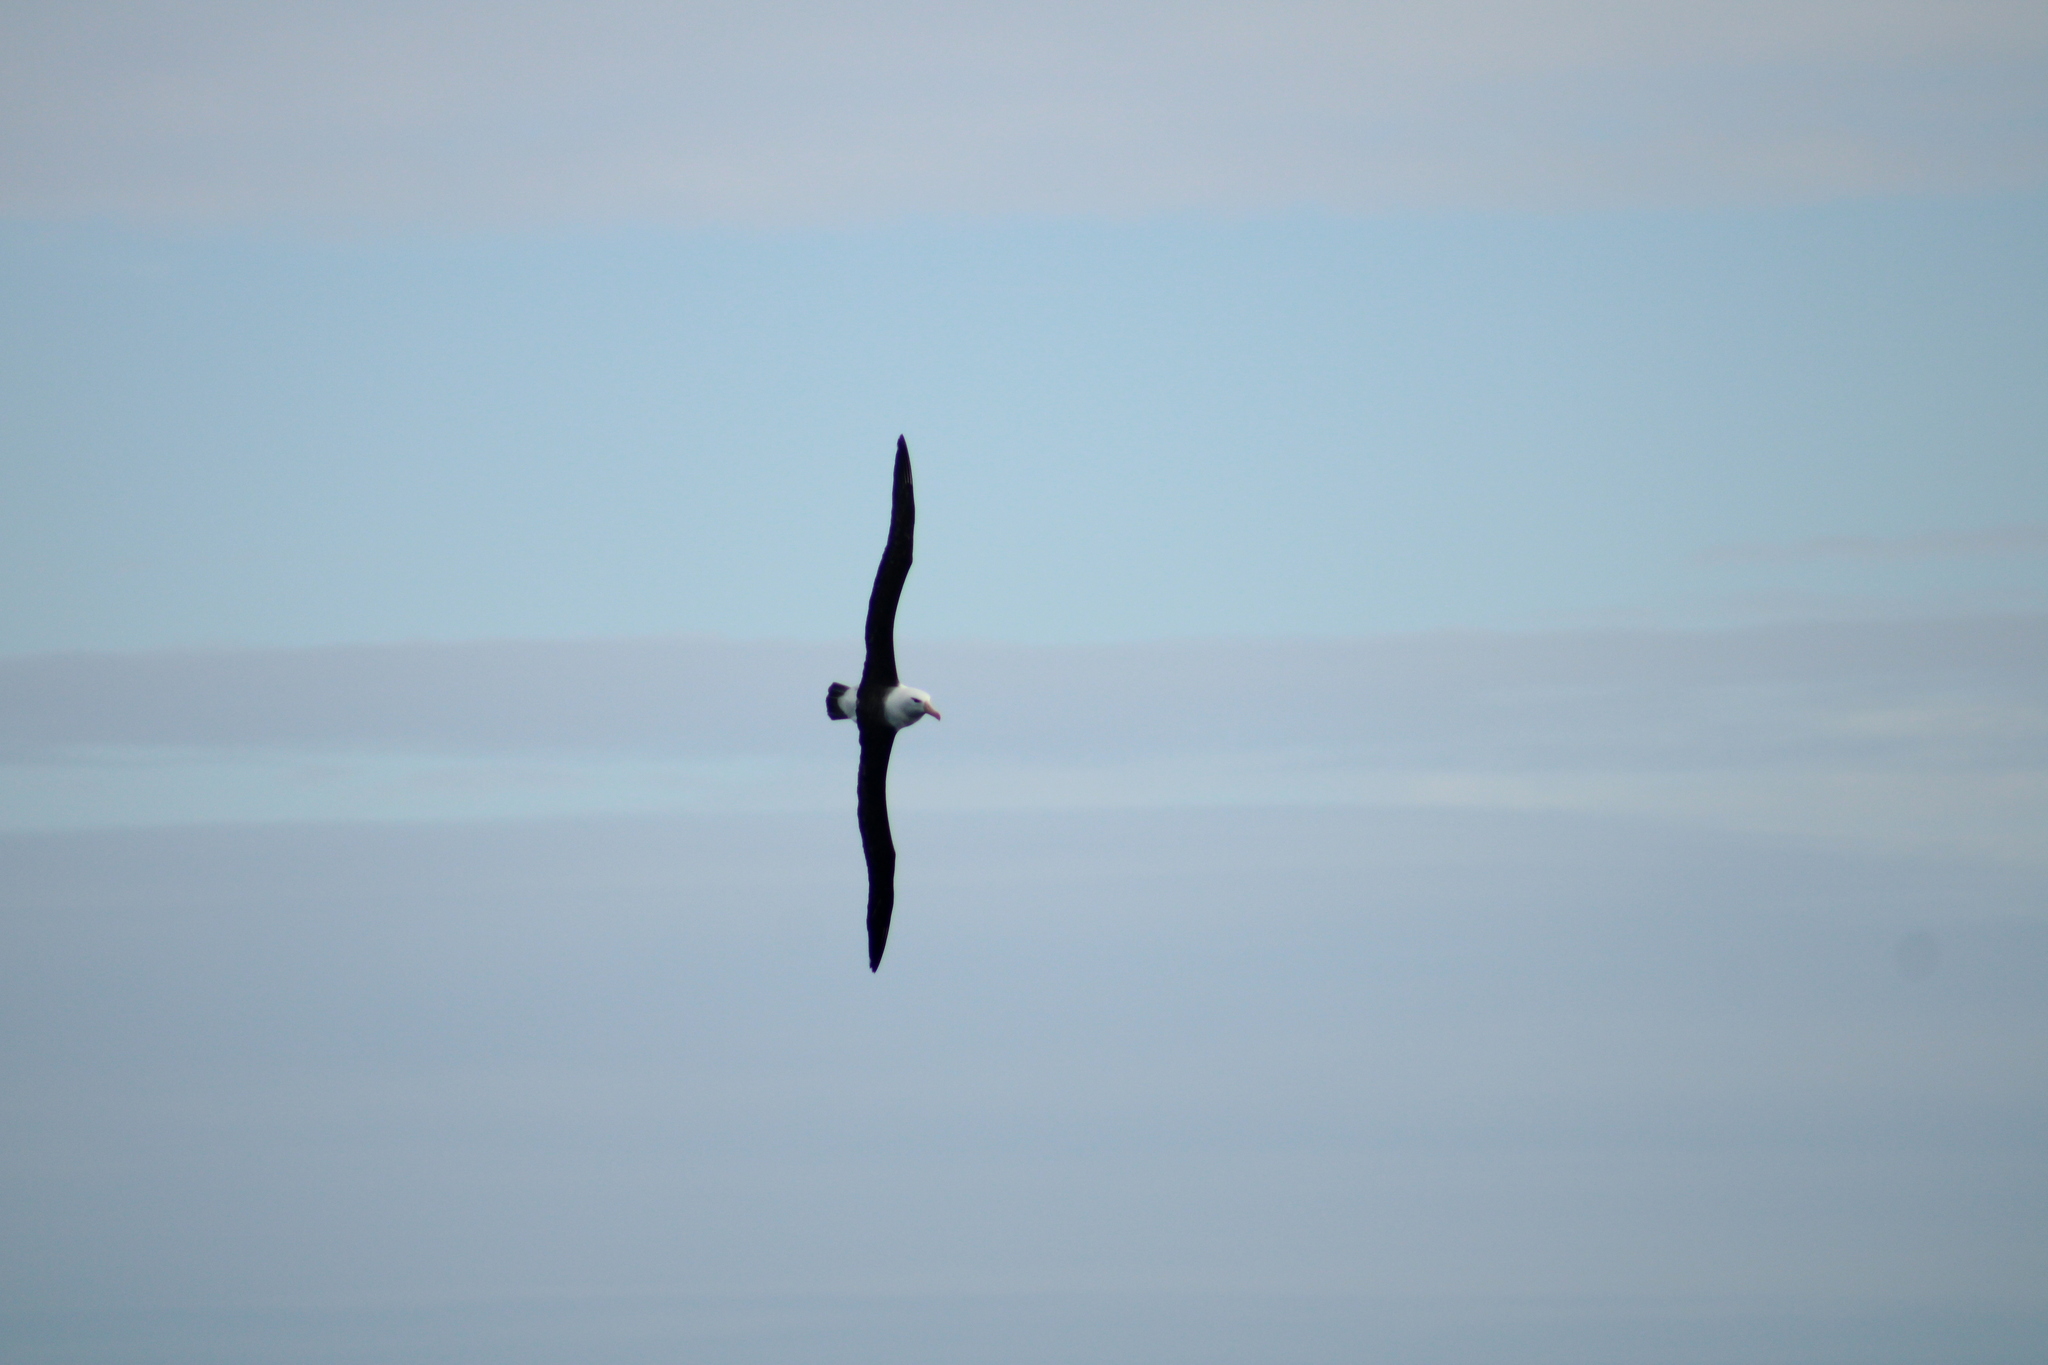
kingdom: Animalia
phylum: Chordata
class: Aves
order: Procellariiformes
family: Diomedeidae
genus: Thalassarche
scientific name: Thalassarche melanophris
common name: Black-browed albatross
